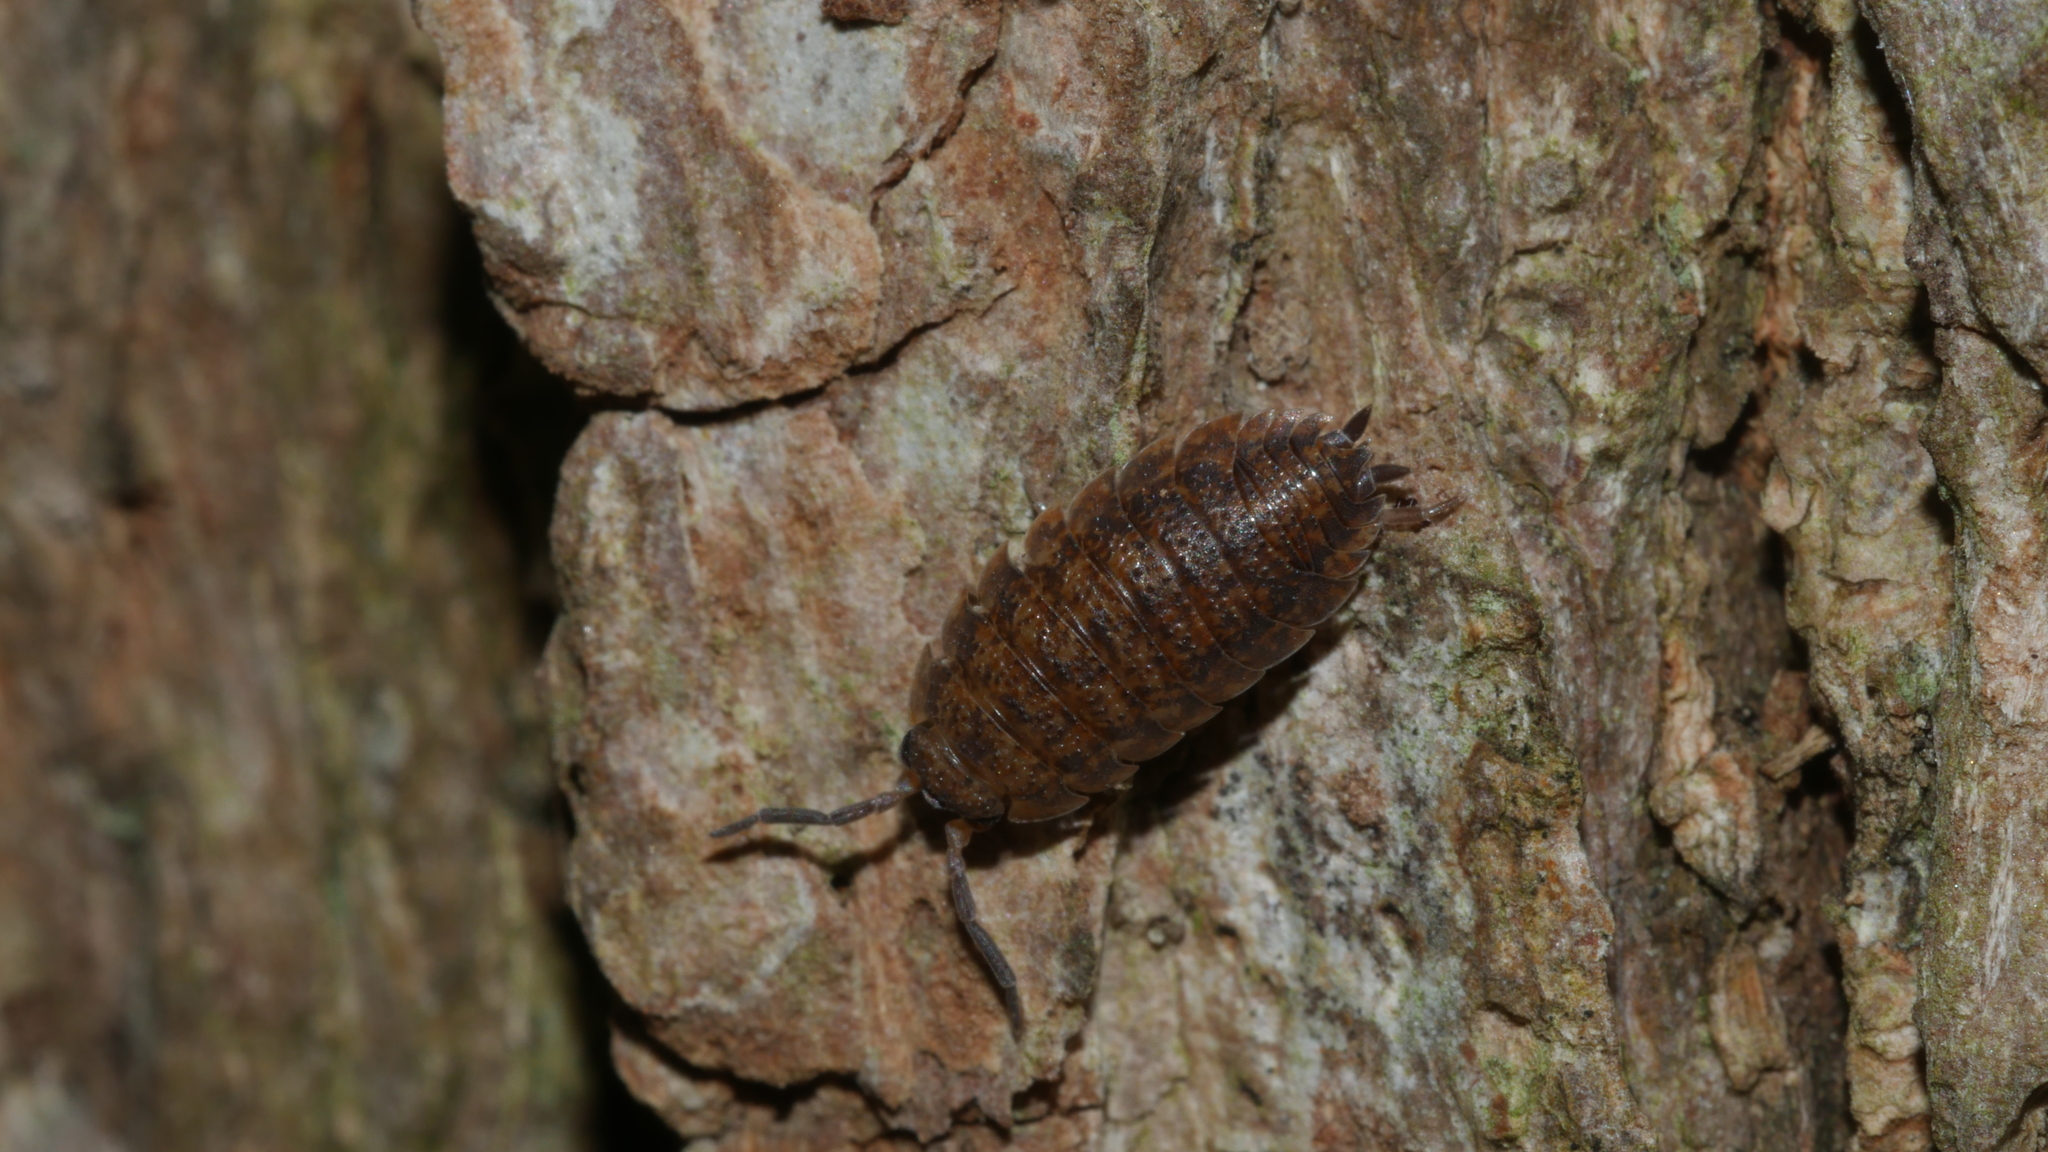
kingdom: Animalia
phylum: Arthropoda
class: Malacostraca
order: Isopoda
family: Porcellionidae
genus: Porcellio
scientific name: Porcellio scaber
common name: Common rough woodlouse
